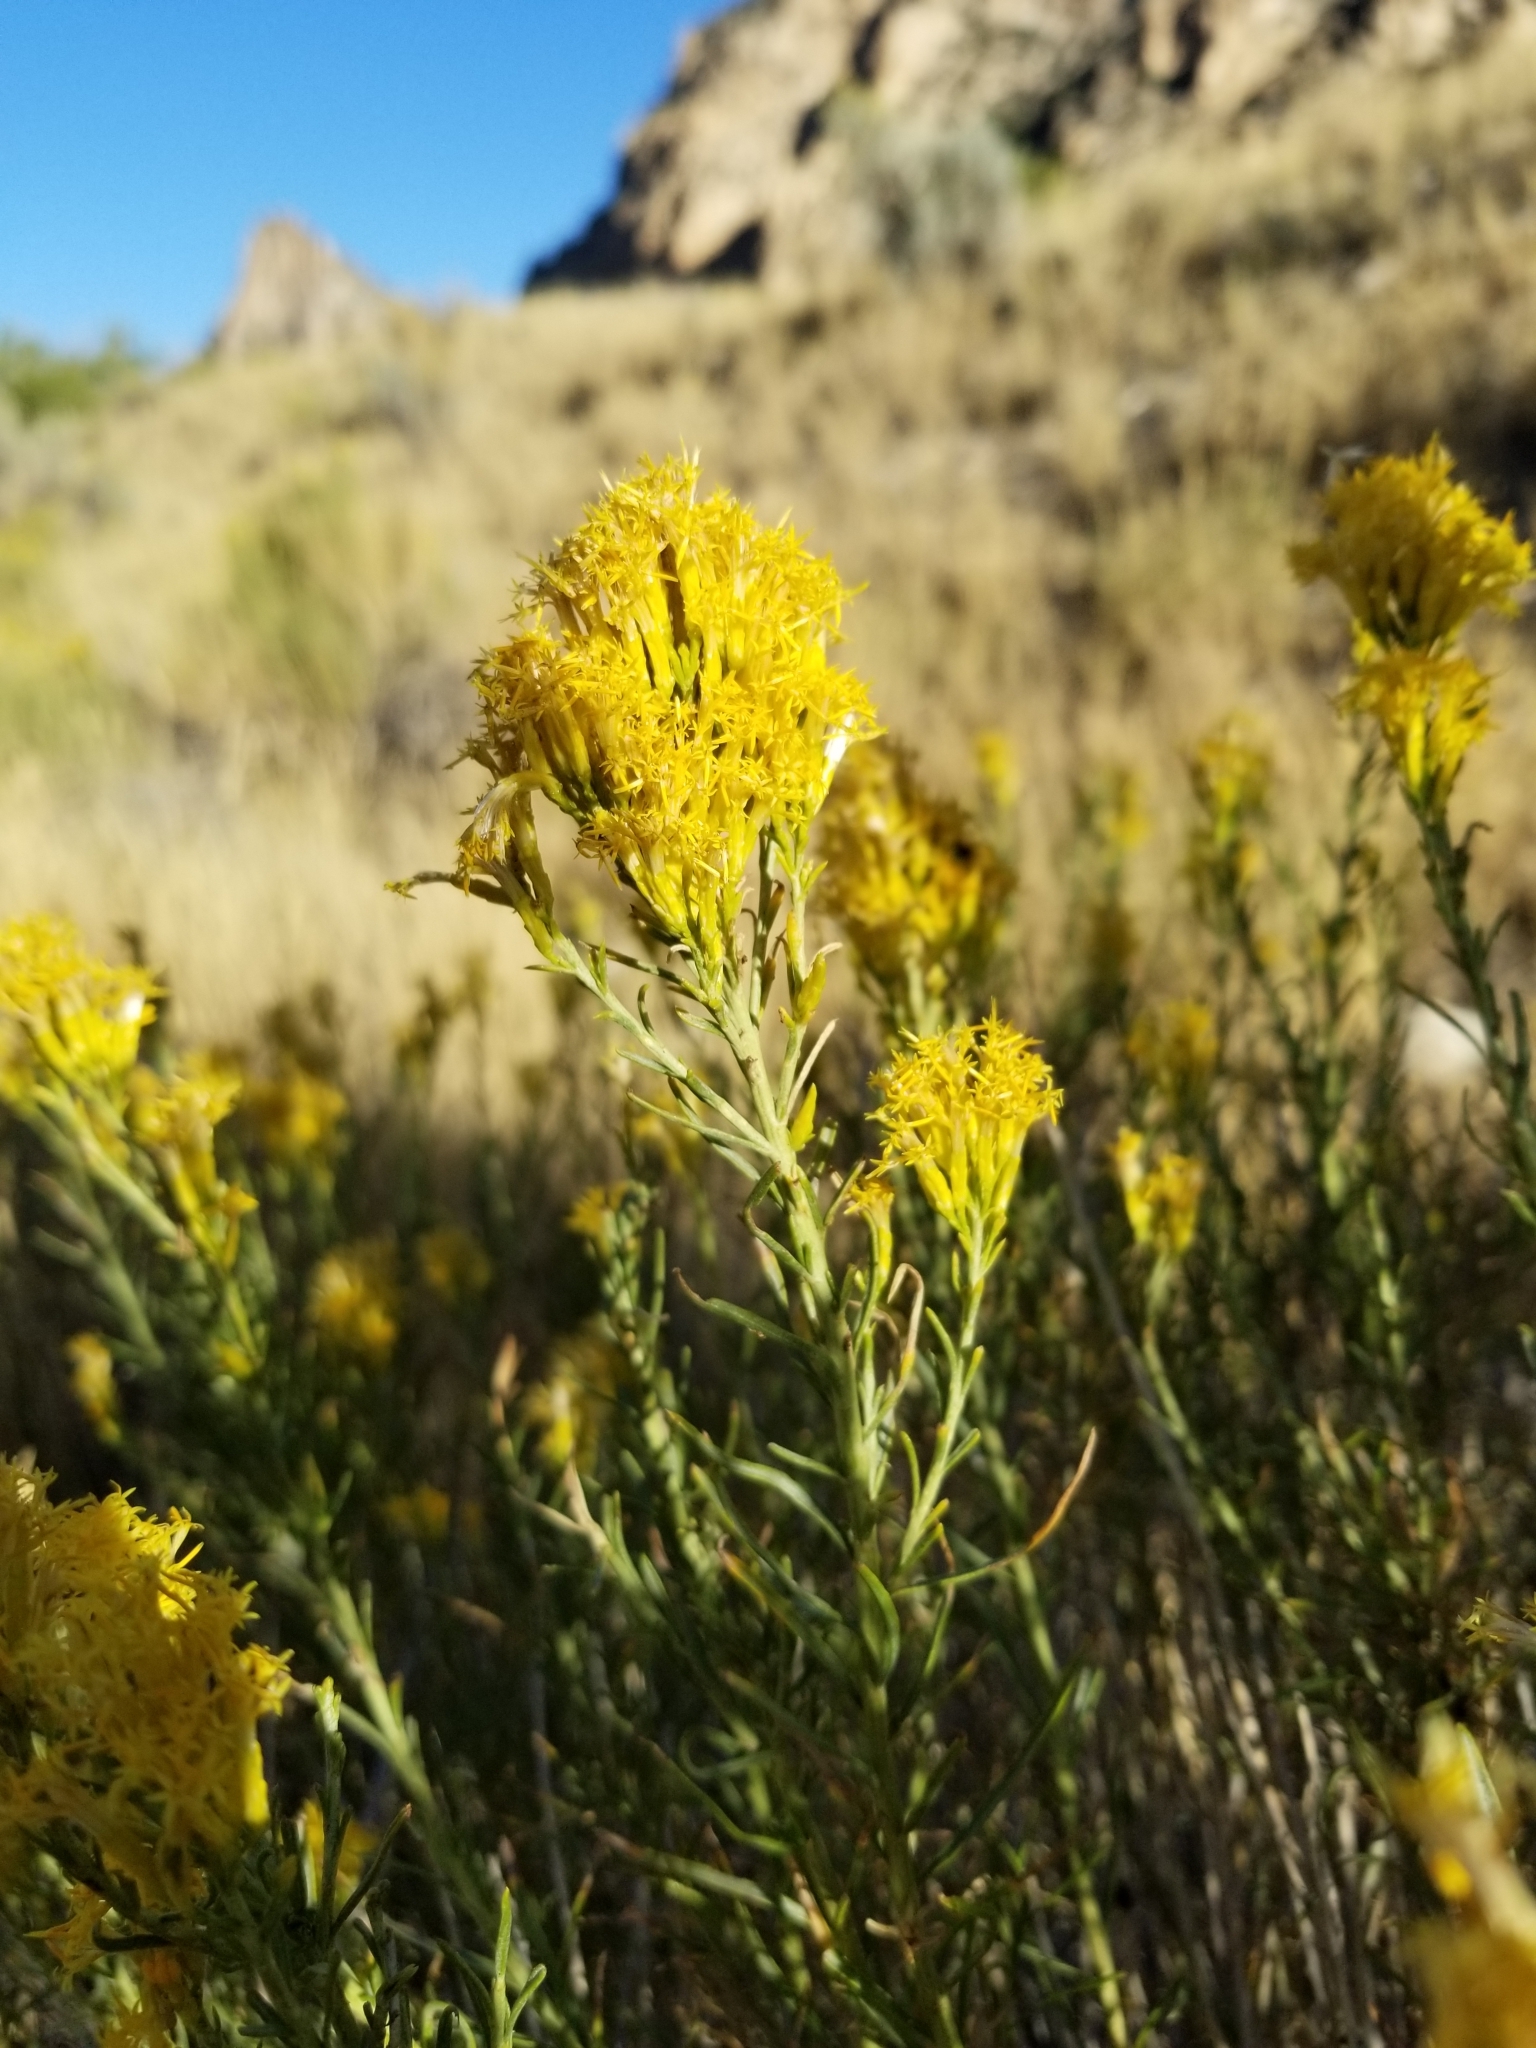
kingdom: Plantae
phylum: Tracheophyta
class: Magnoliopsida
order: Asterales
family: Asteraceae
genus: Ericameria
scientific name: Ericameria nauseosa
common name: Rubber rabbitbrush
